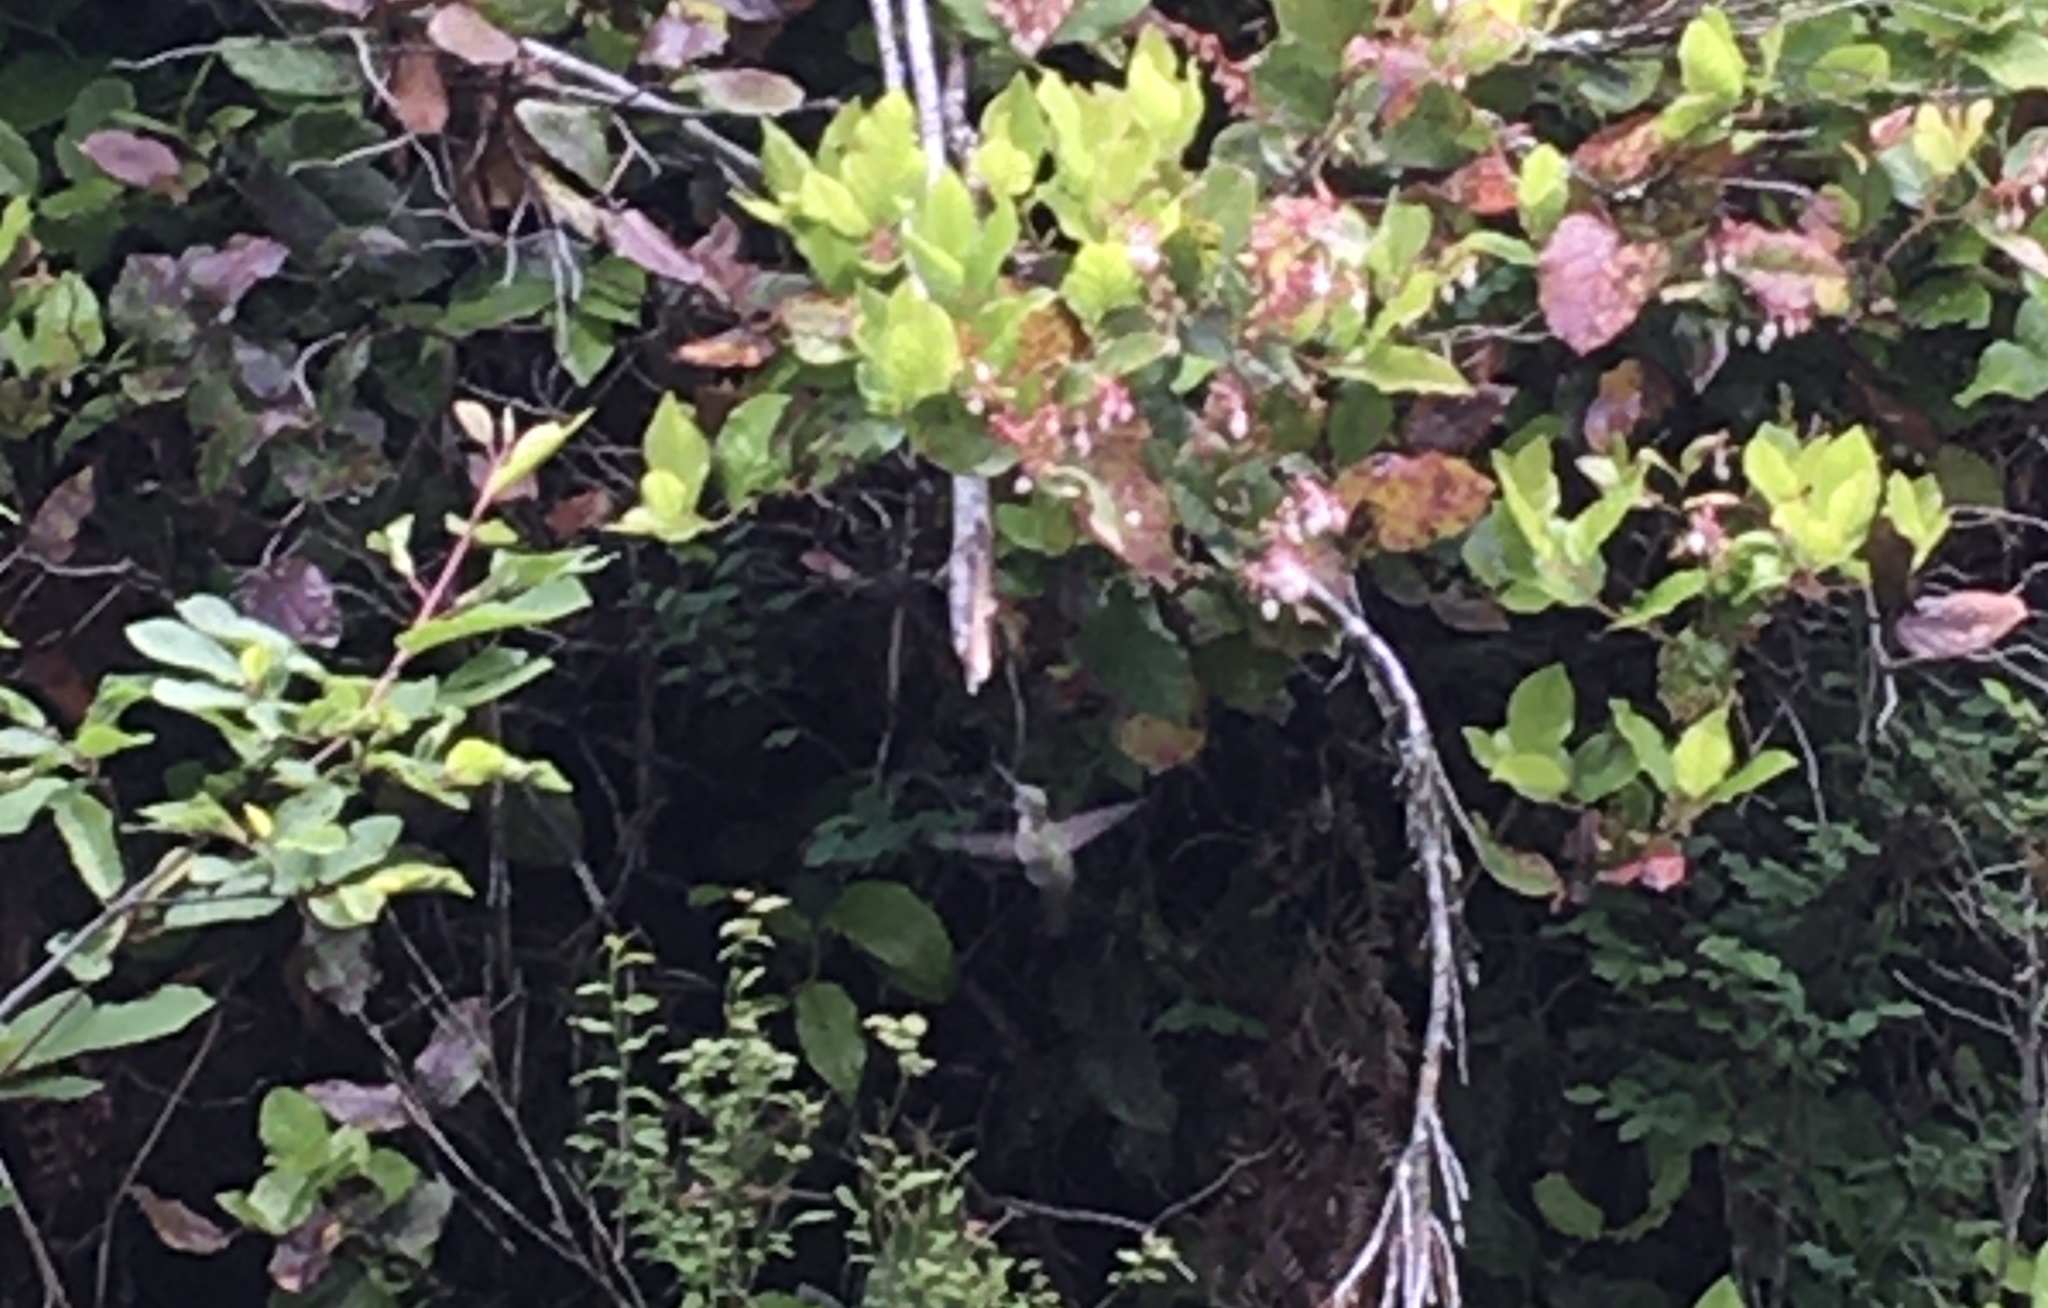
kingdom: Animalia
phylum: Chordata
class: Aves
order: Apodiformes
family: Trochilidae
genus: Calypte
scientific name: Calypte anna
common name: Anna's hummingbird
